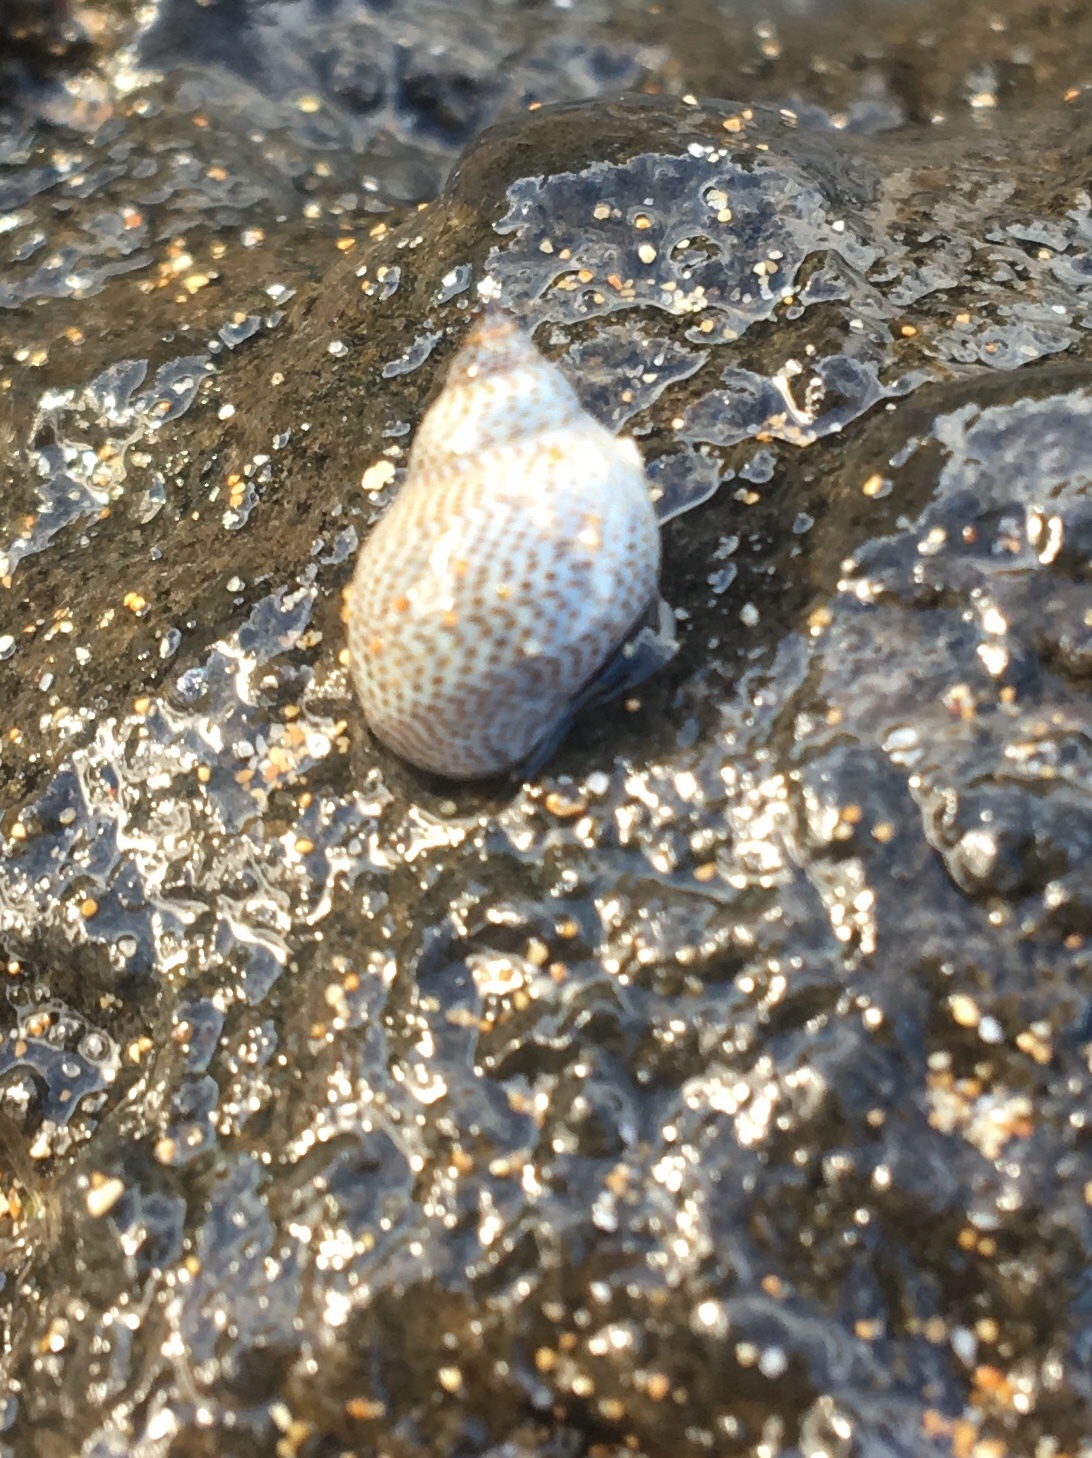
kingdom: Animalia
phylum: Mollusca
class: Gastropoda
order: Littorinimorpha
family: Littorinidae
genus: Littoraria
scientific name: Littoraria pintado
